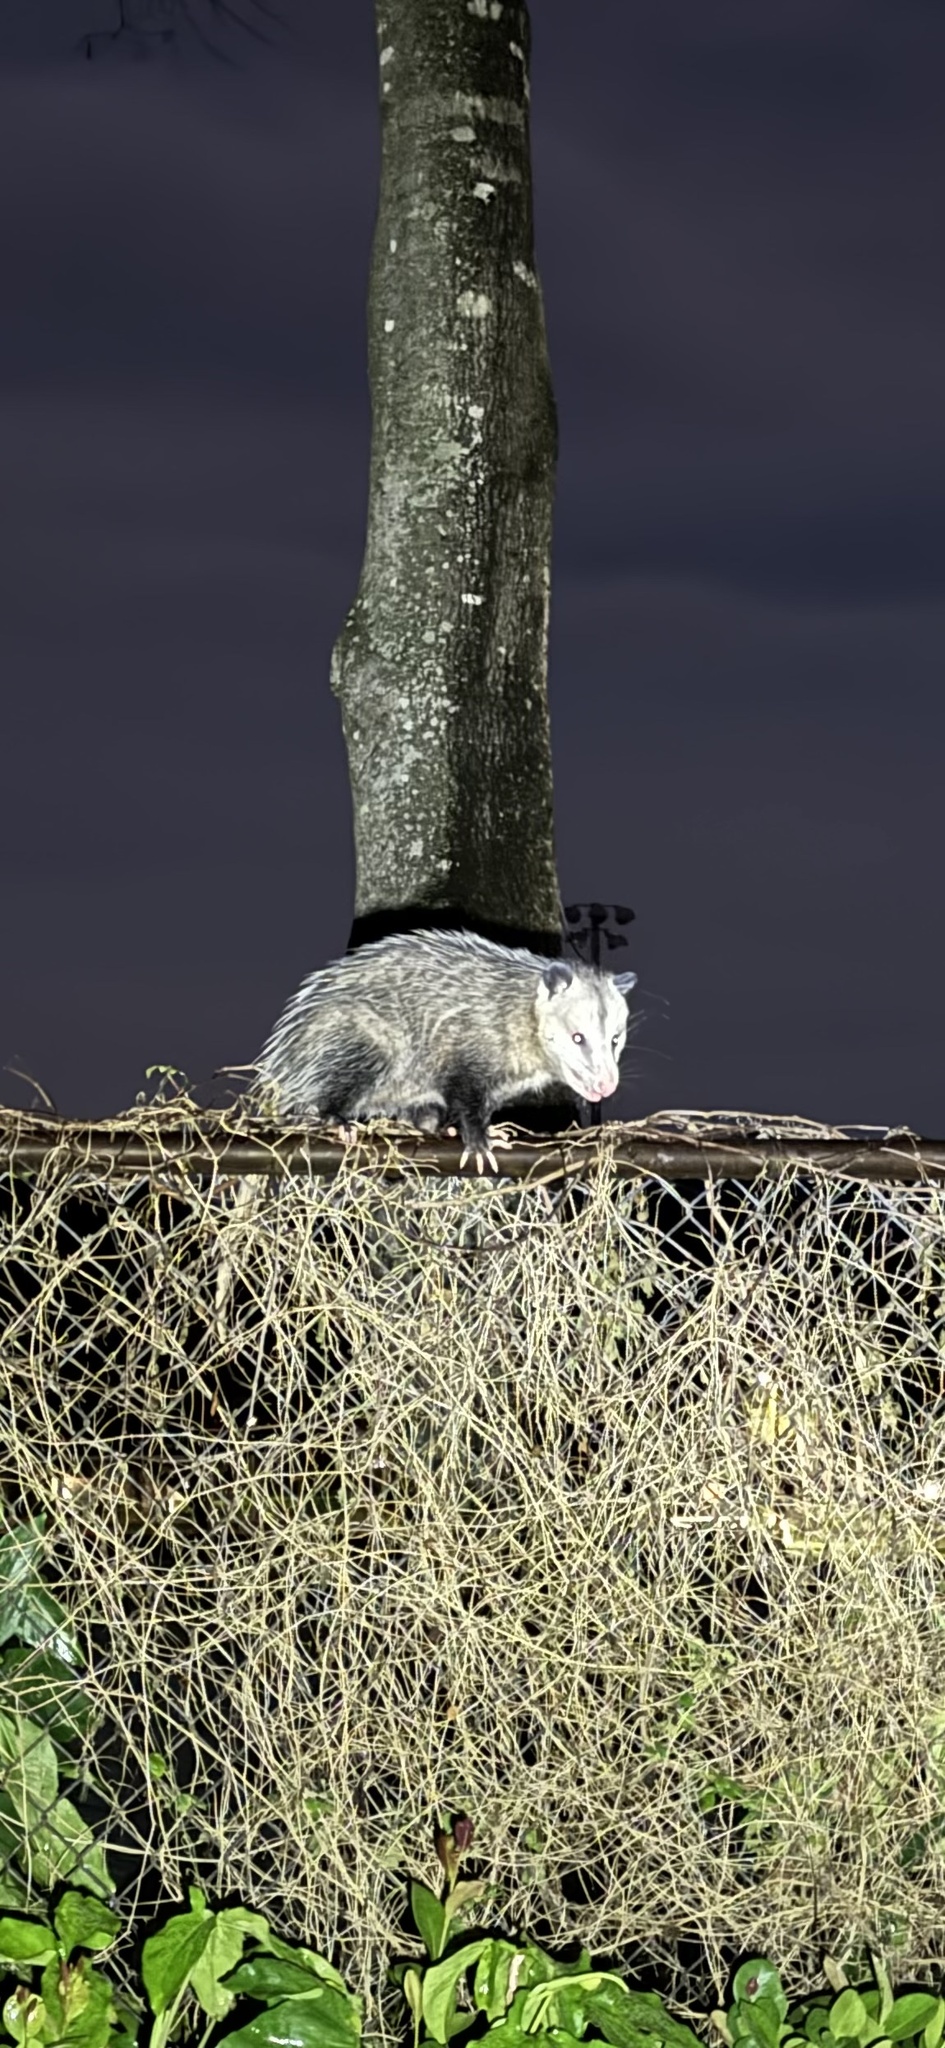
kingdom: Animalia
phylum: Chordata
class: Mammalia
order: Didelphimorphia
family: Didelphidae
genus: Didelphis
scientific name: Didelphis virginiana
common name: Virginia opossum
